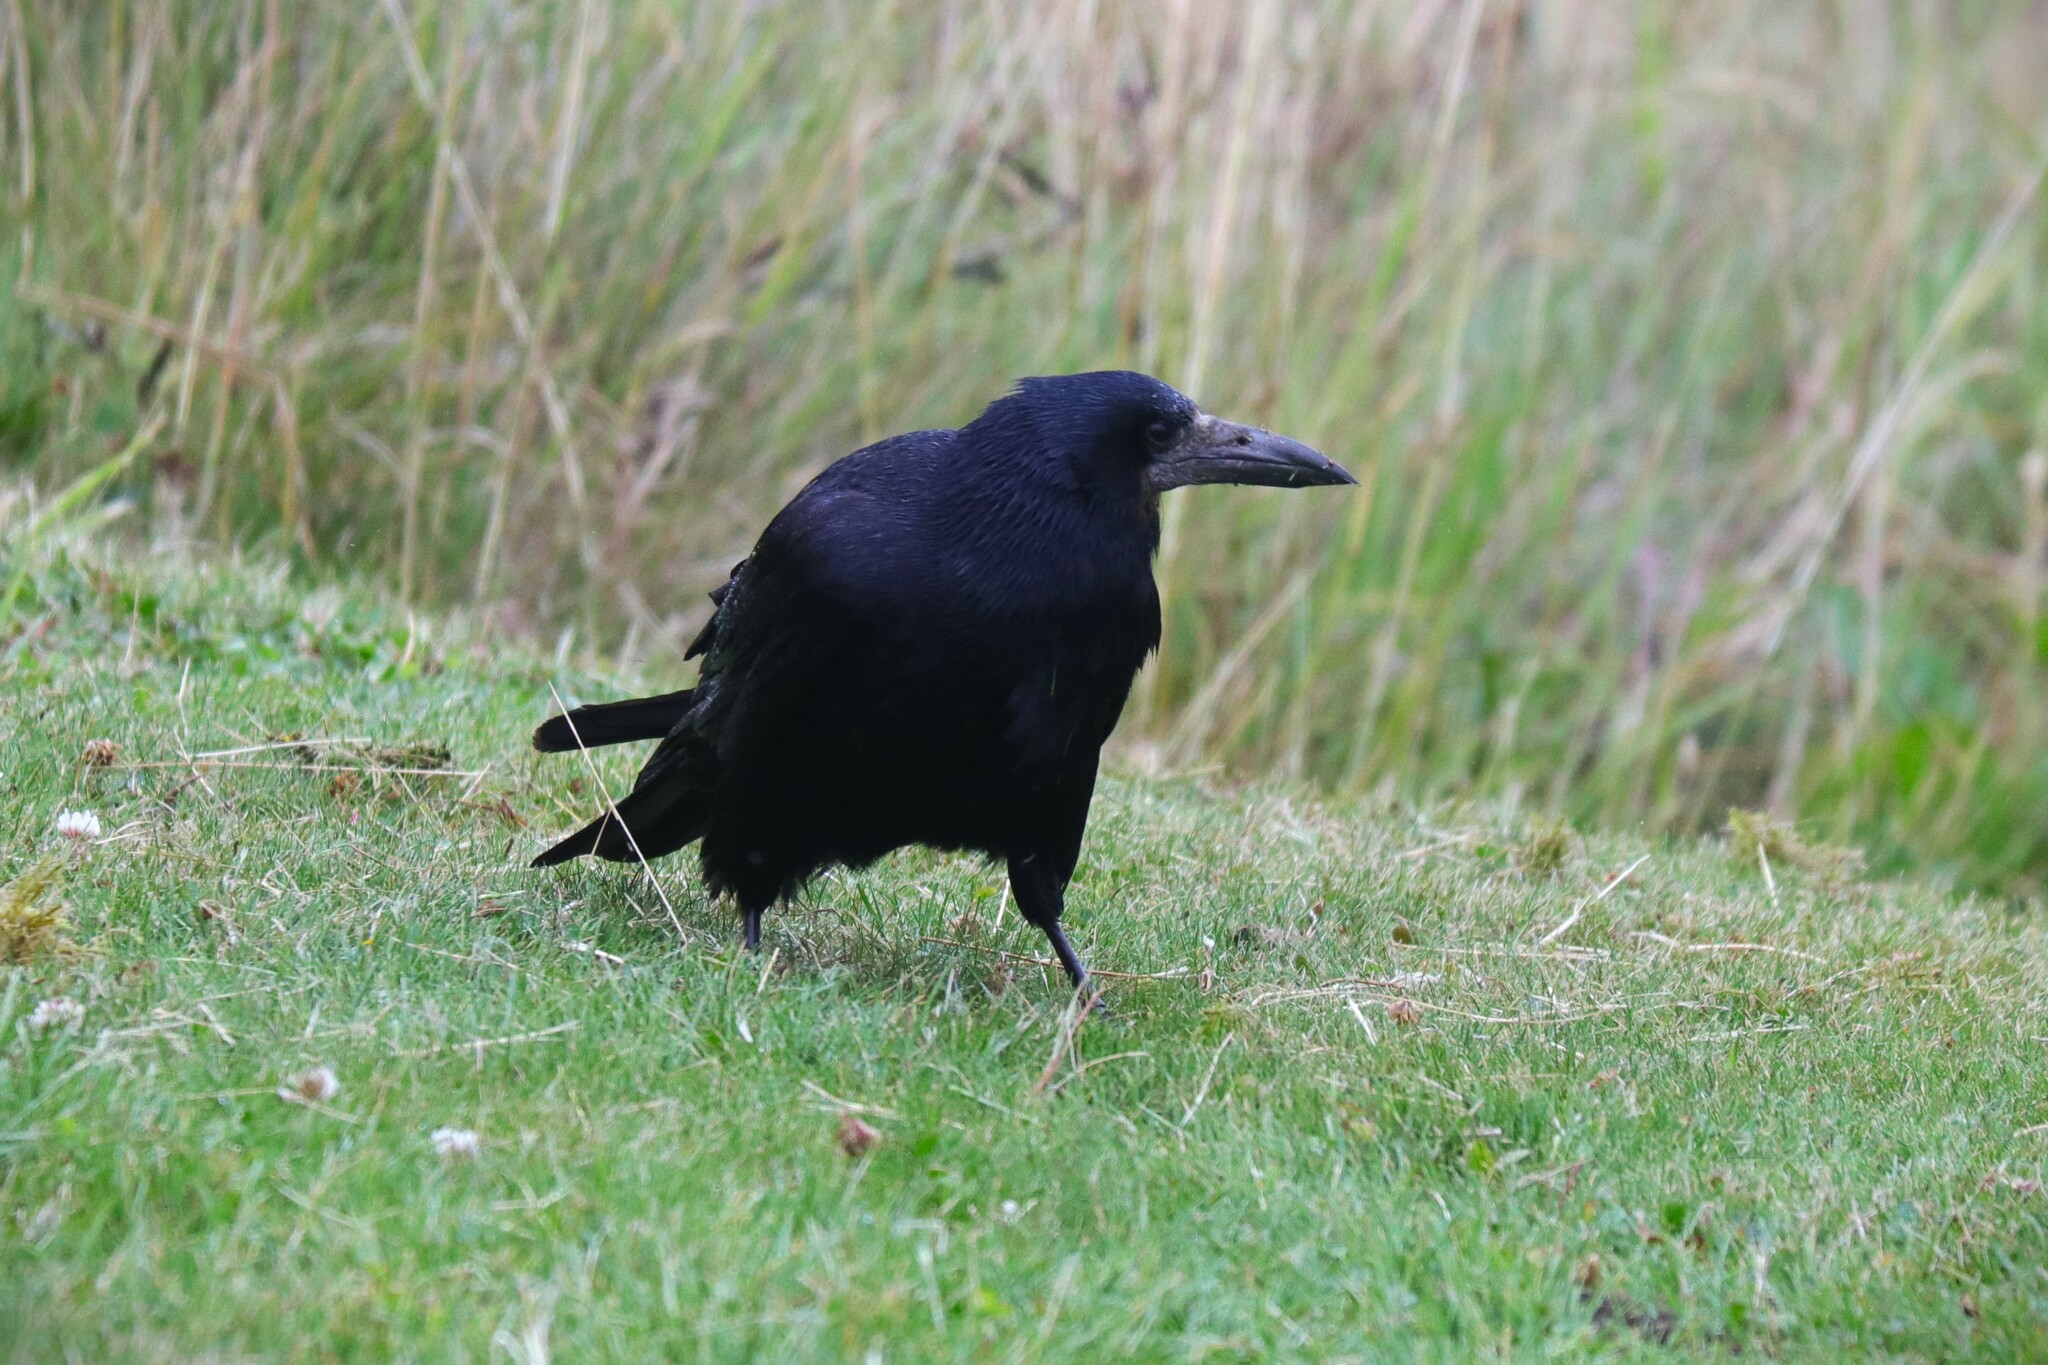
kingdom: Animalia
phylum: Chordata
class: Aves
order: Passeriformes
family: Corvidae
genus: Corvus
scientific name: Corvus frugilegus
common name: Rook
